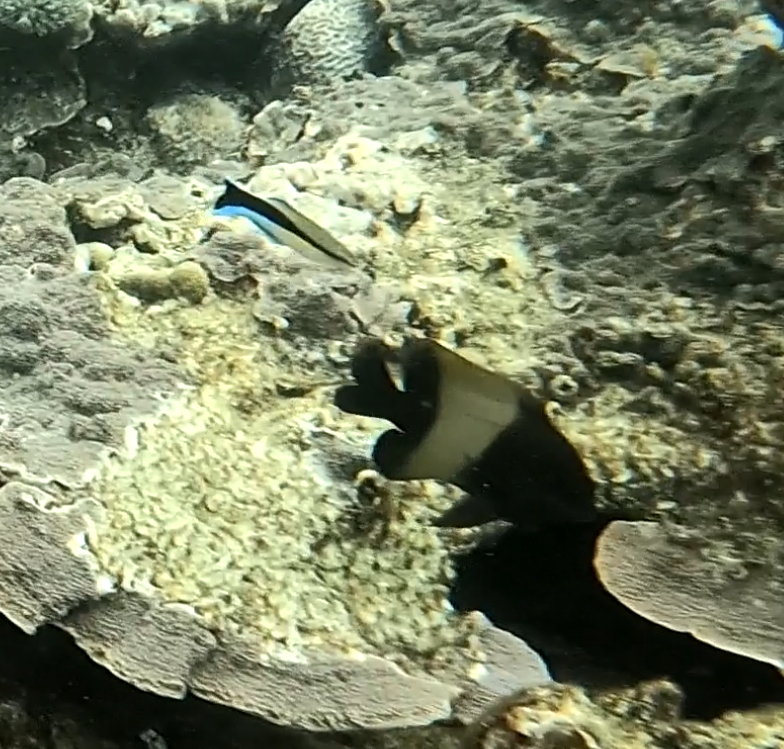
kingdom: Animalia
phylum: Chordata
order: Perciformes
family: Labridae
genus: Labroides
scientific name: Labroides dimidiatus
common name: Blue diesel wrasse
